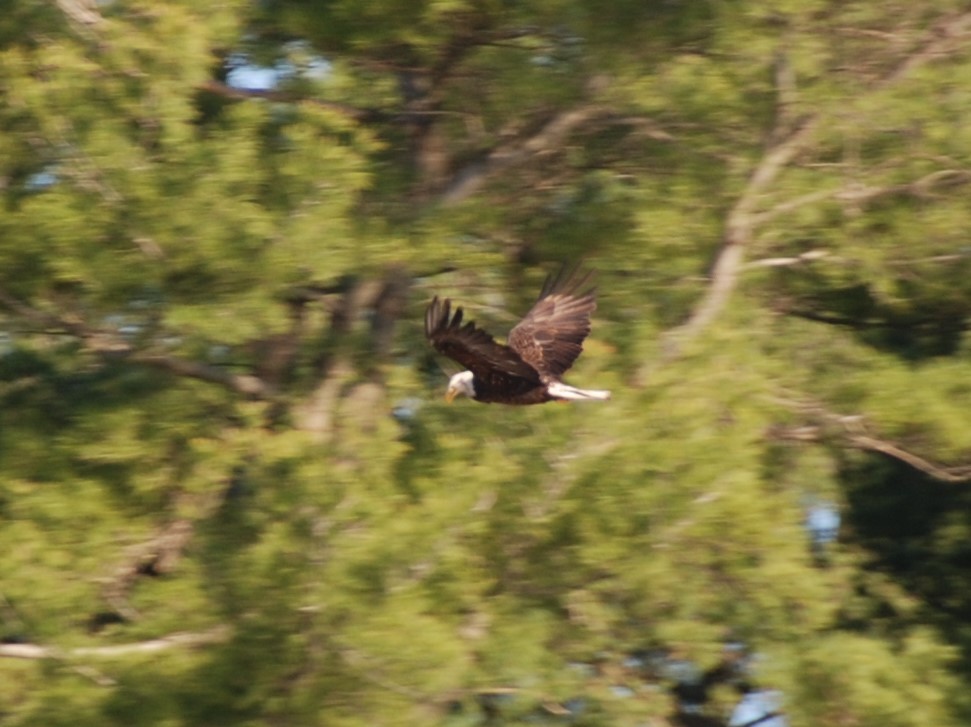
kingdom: Animalia
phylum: Chordata
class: Aves
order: Accipitriformes
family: Accipitridae
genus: Haliaeetus
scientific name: Haliaeetus leucocephalus
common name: Bald eagle
